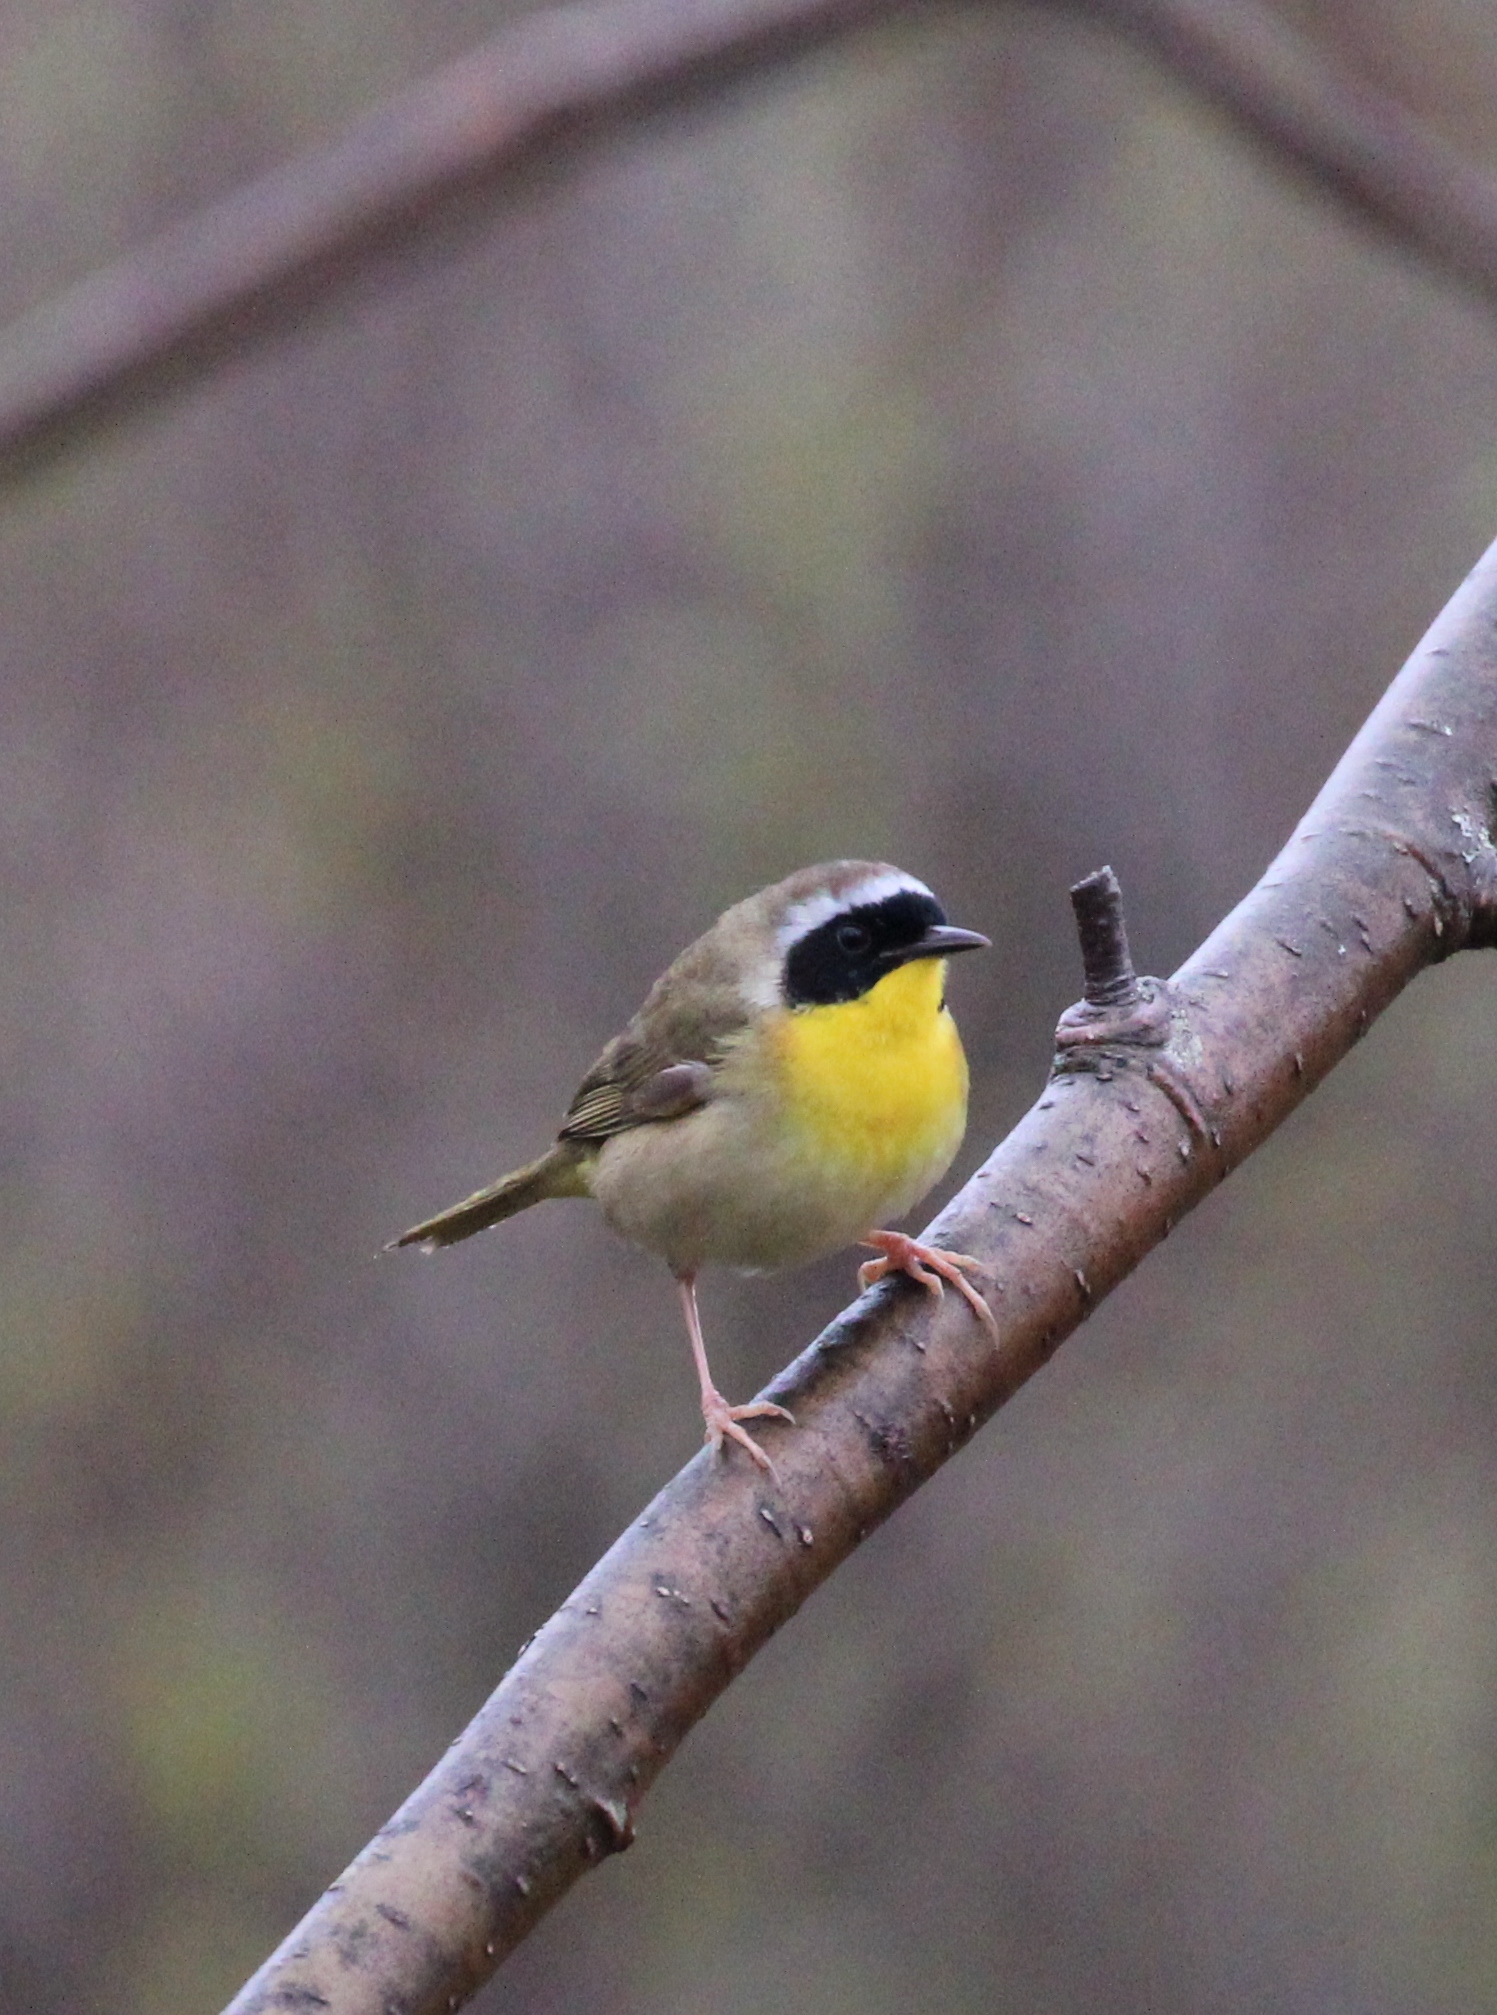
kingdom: Animalia
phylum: Chordata
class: Aves
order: Passeriformes
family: Parulidae
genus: Geothlypis
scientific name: Geothlypis trichas
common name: Common yellowthroat
